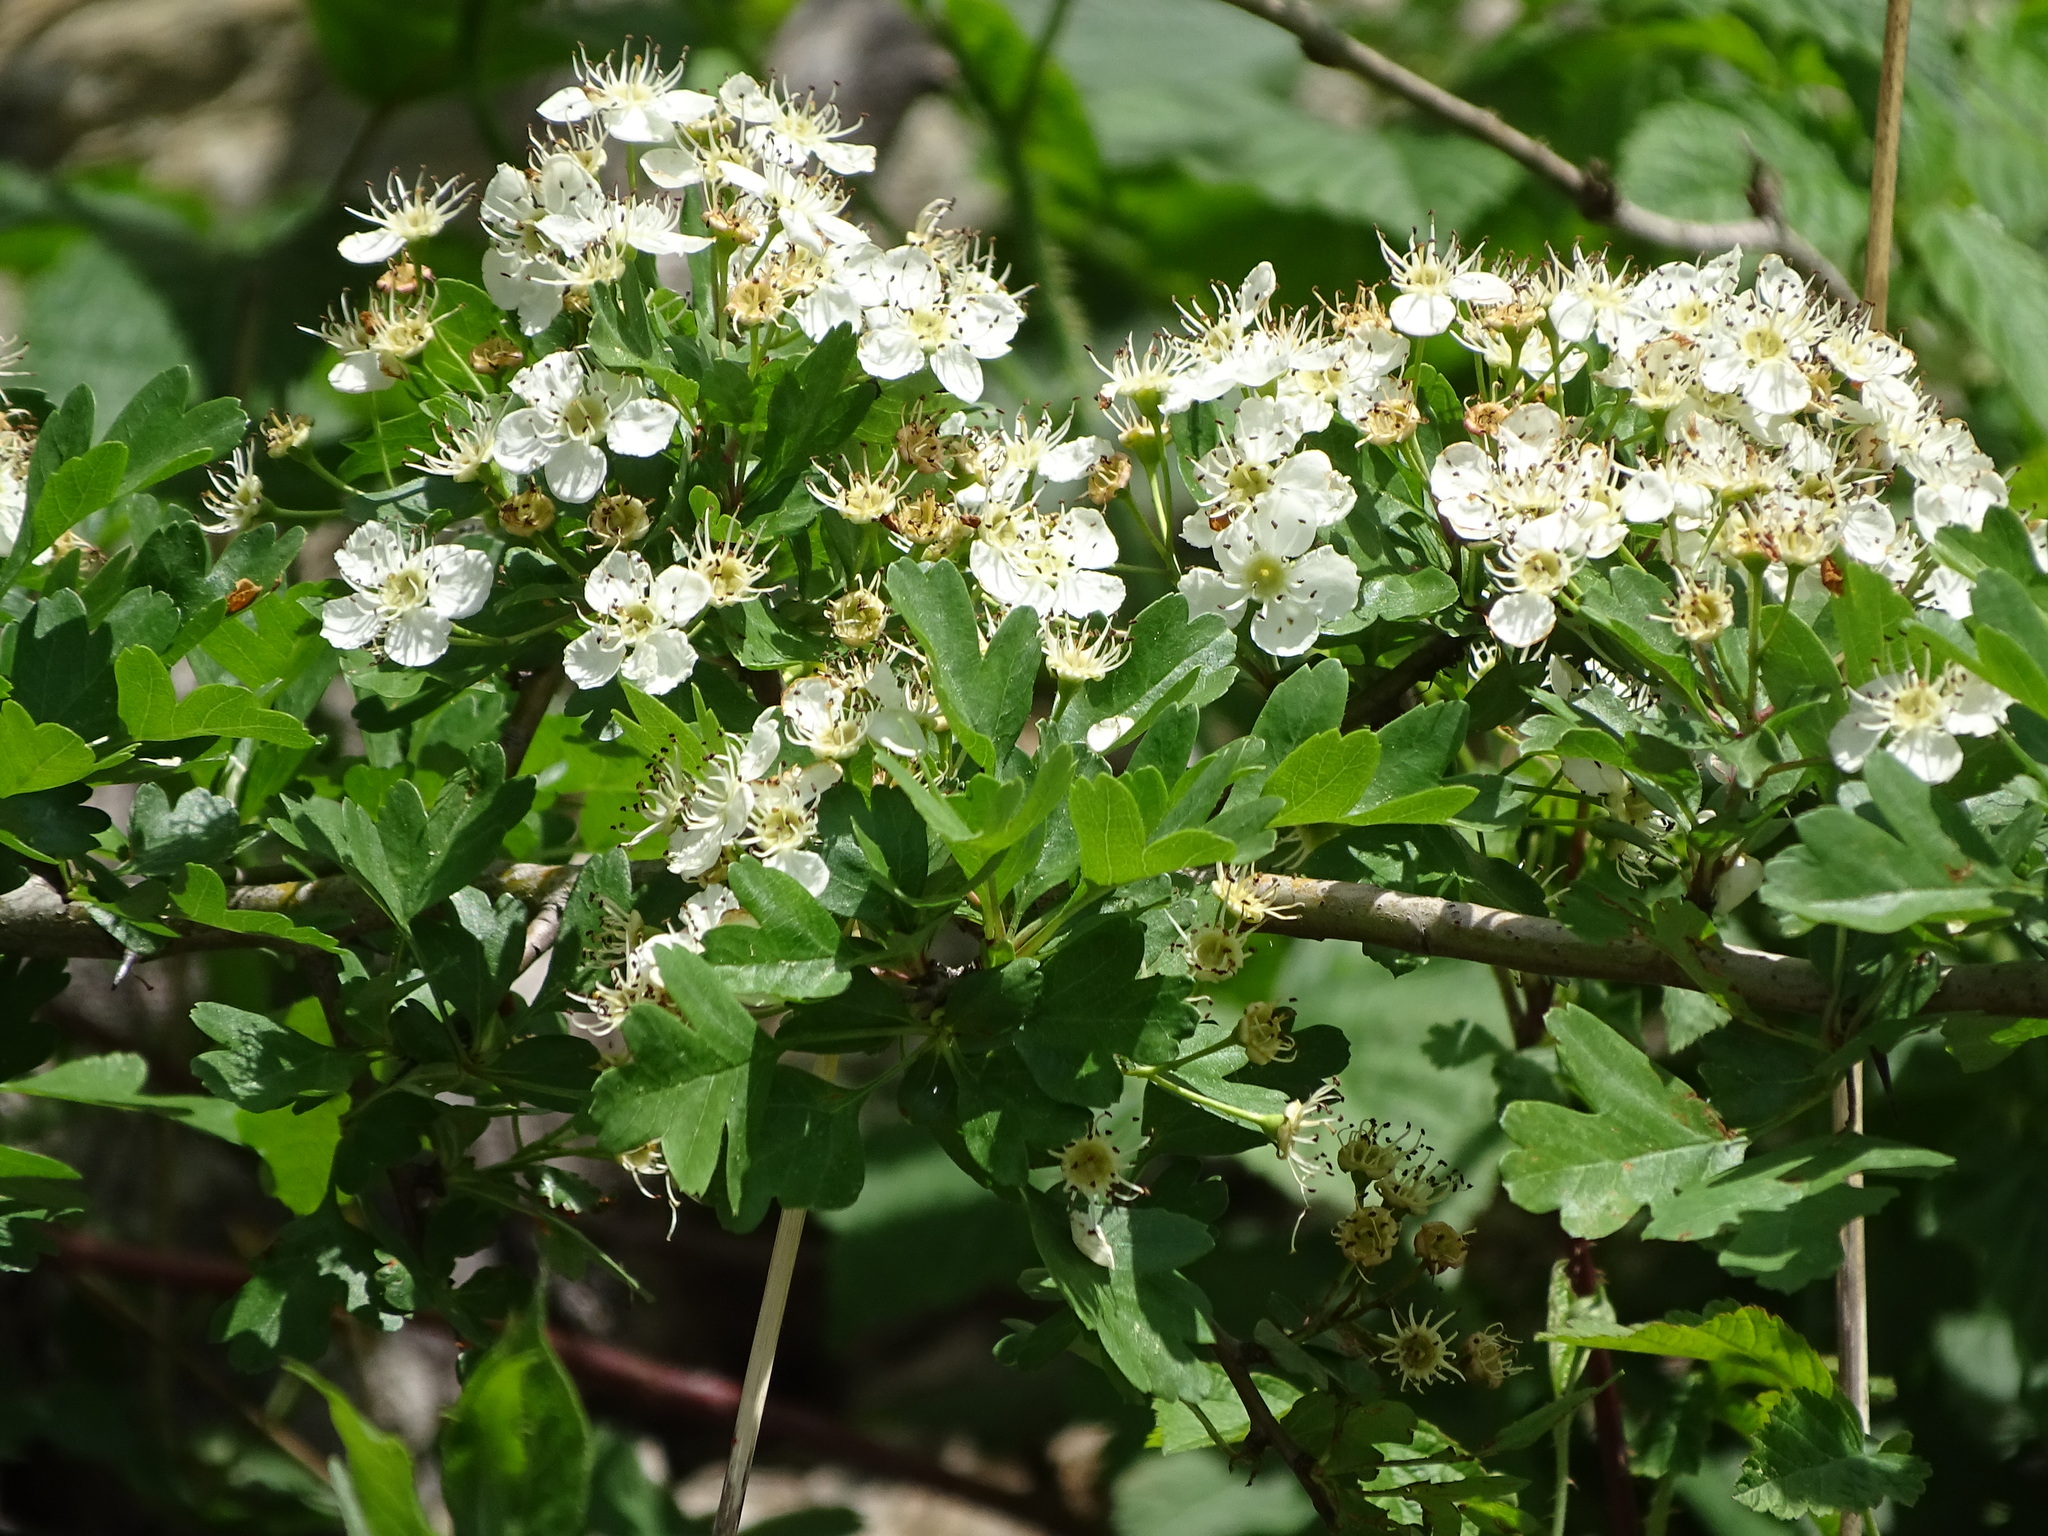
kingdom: Plantae
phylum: Tracheophyta
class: Magnoliopsida
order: Rosales
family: Rosaceae
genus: Crataegus
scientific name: Crataegus monogyna
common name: Hawthorn
